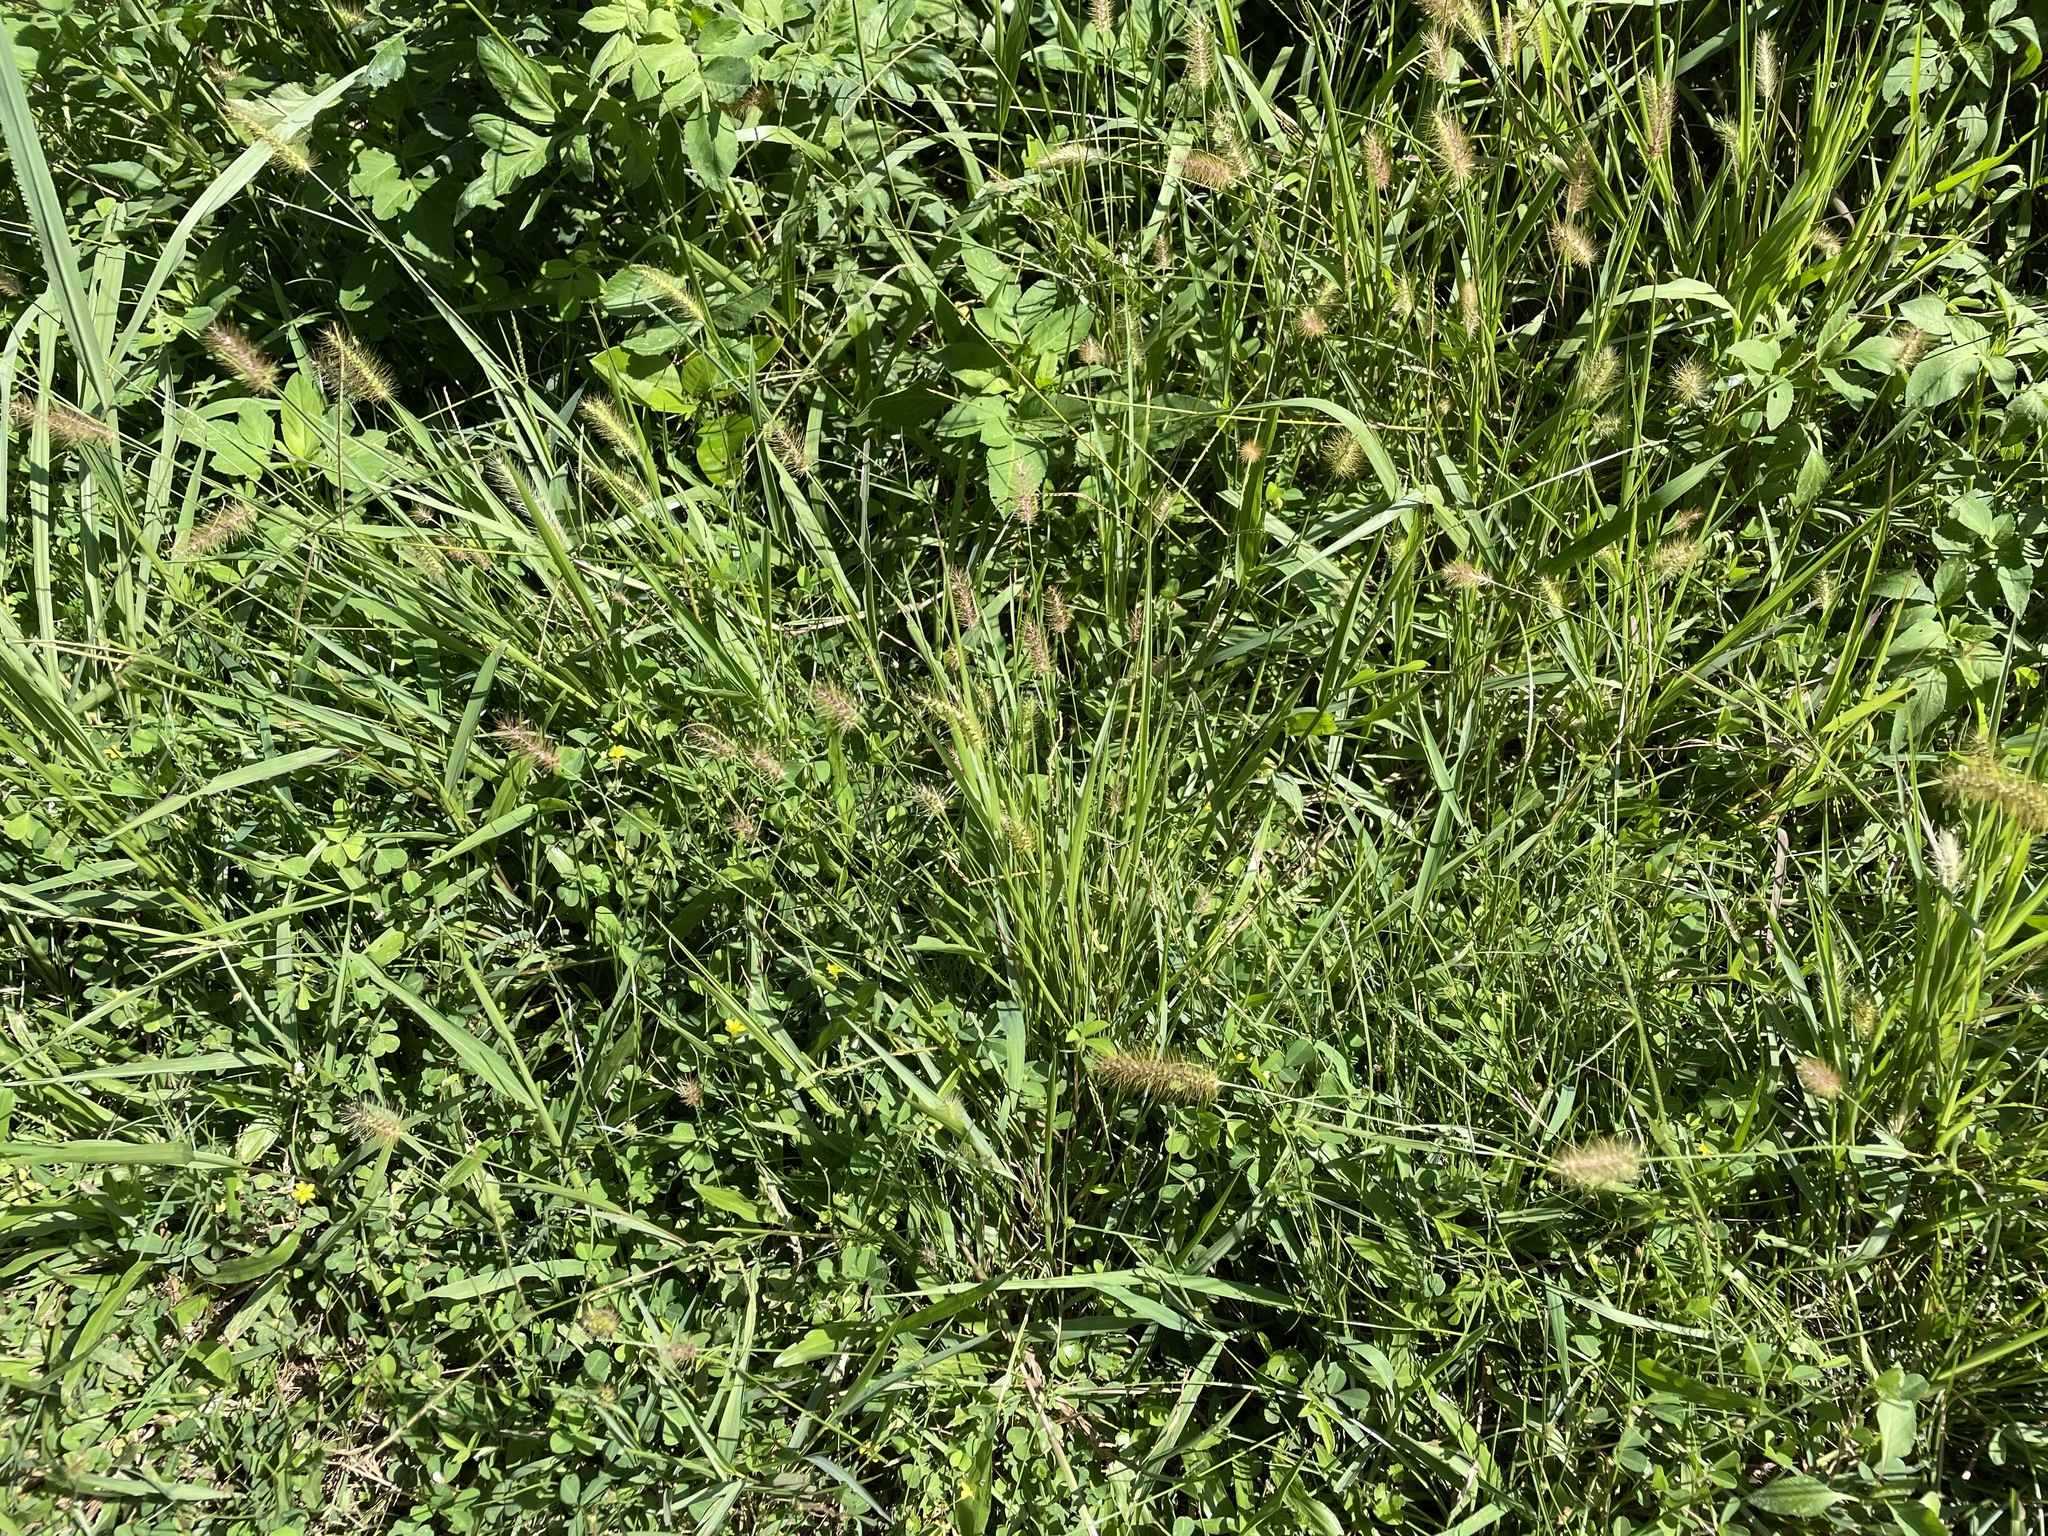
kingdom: Plantae
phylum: Tracheophyta
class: Liliopsida
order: Poales
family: Poaceae
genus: Setaria
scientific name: Setaria parviflora
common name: Knotroot bristle-grass
